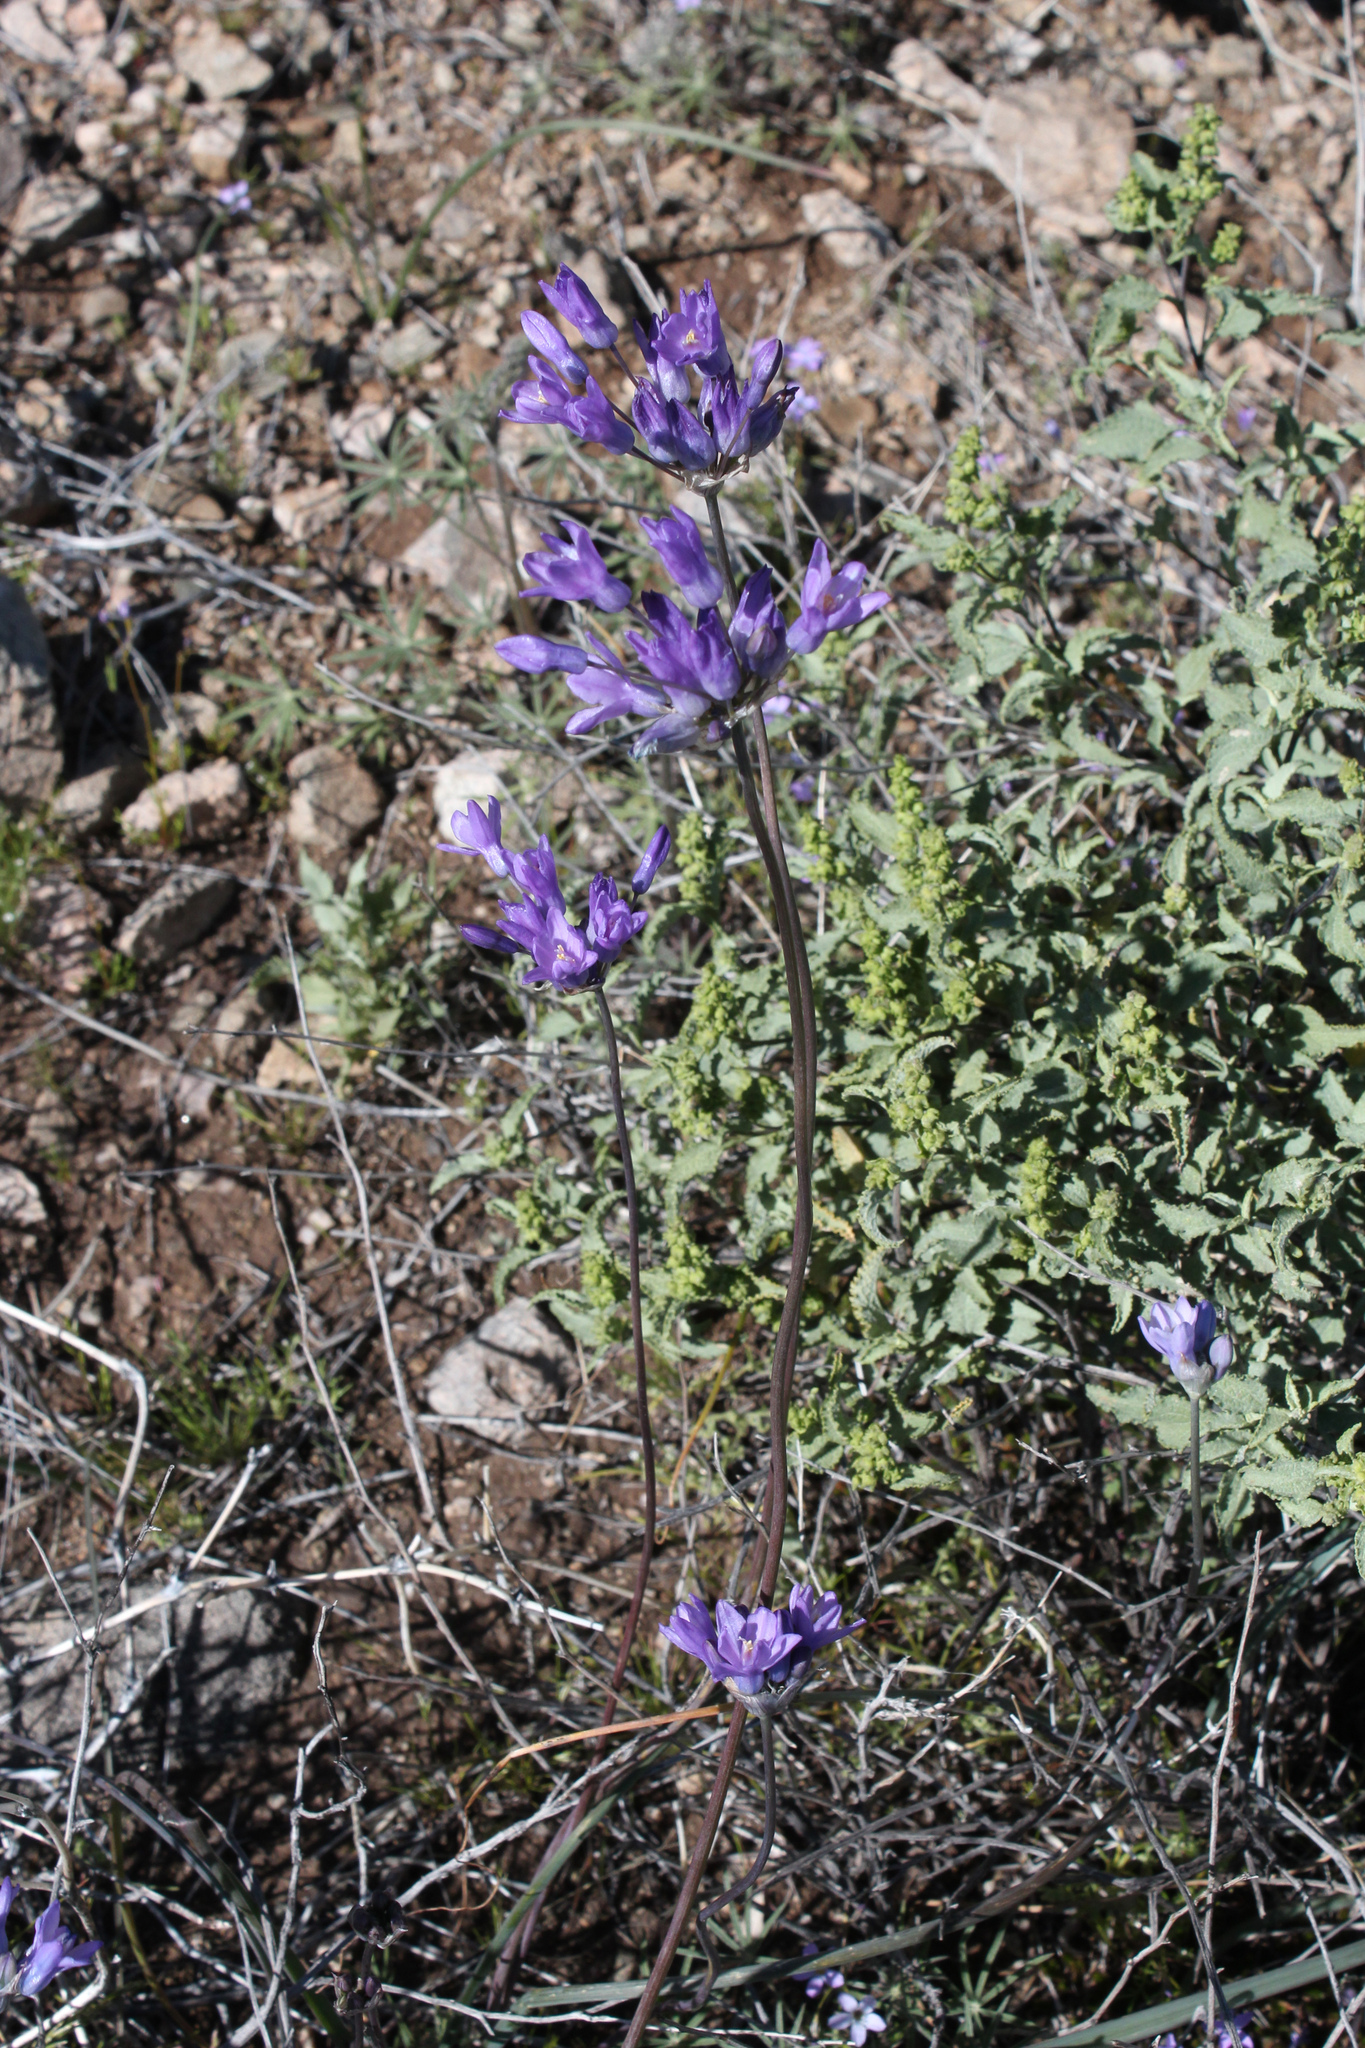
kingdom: Plantae
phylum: Tracheophyta
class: Liliopsida
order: Asparagales
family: Asparagaceae
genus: Dipterostemon
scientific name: Dipterostemon capitatus
